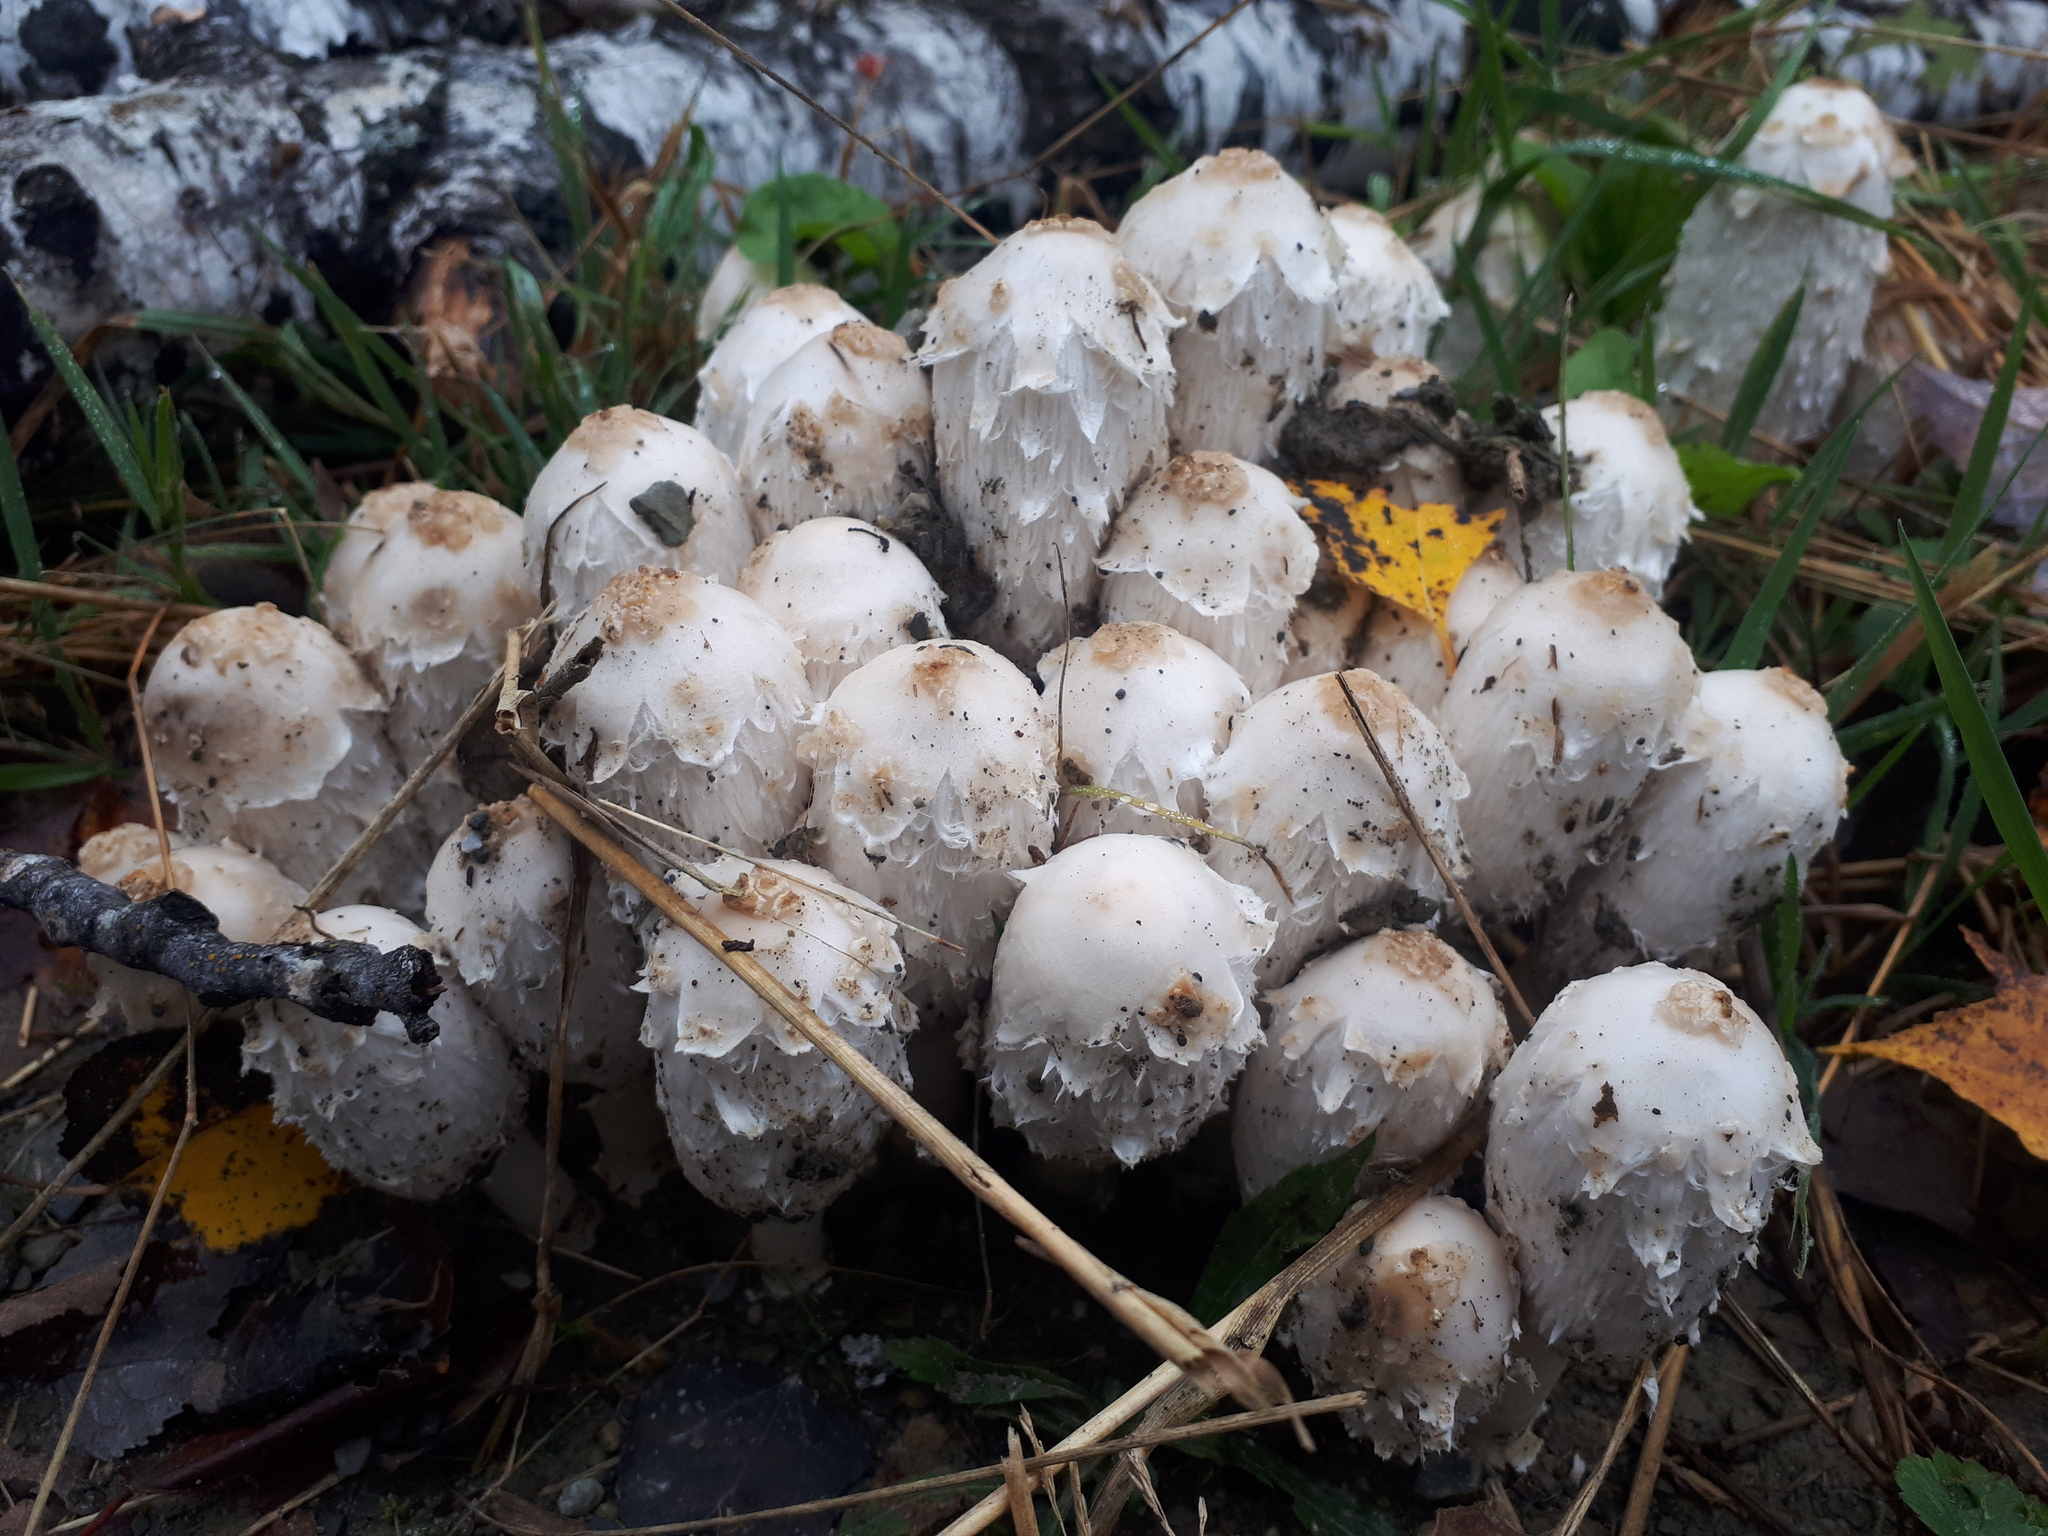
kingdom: Fungi
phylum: Basidiomycota
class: Agaricomycetes
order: Agaricales
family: Agaricaceae
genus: Coprinus
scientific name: Coprinus comatus
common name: Lawyer's wig
